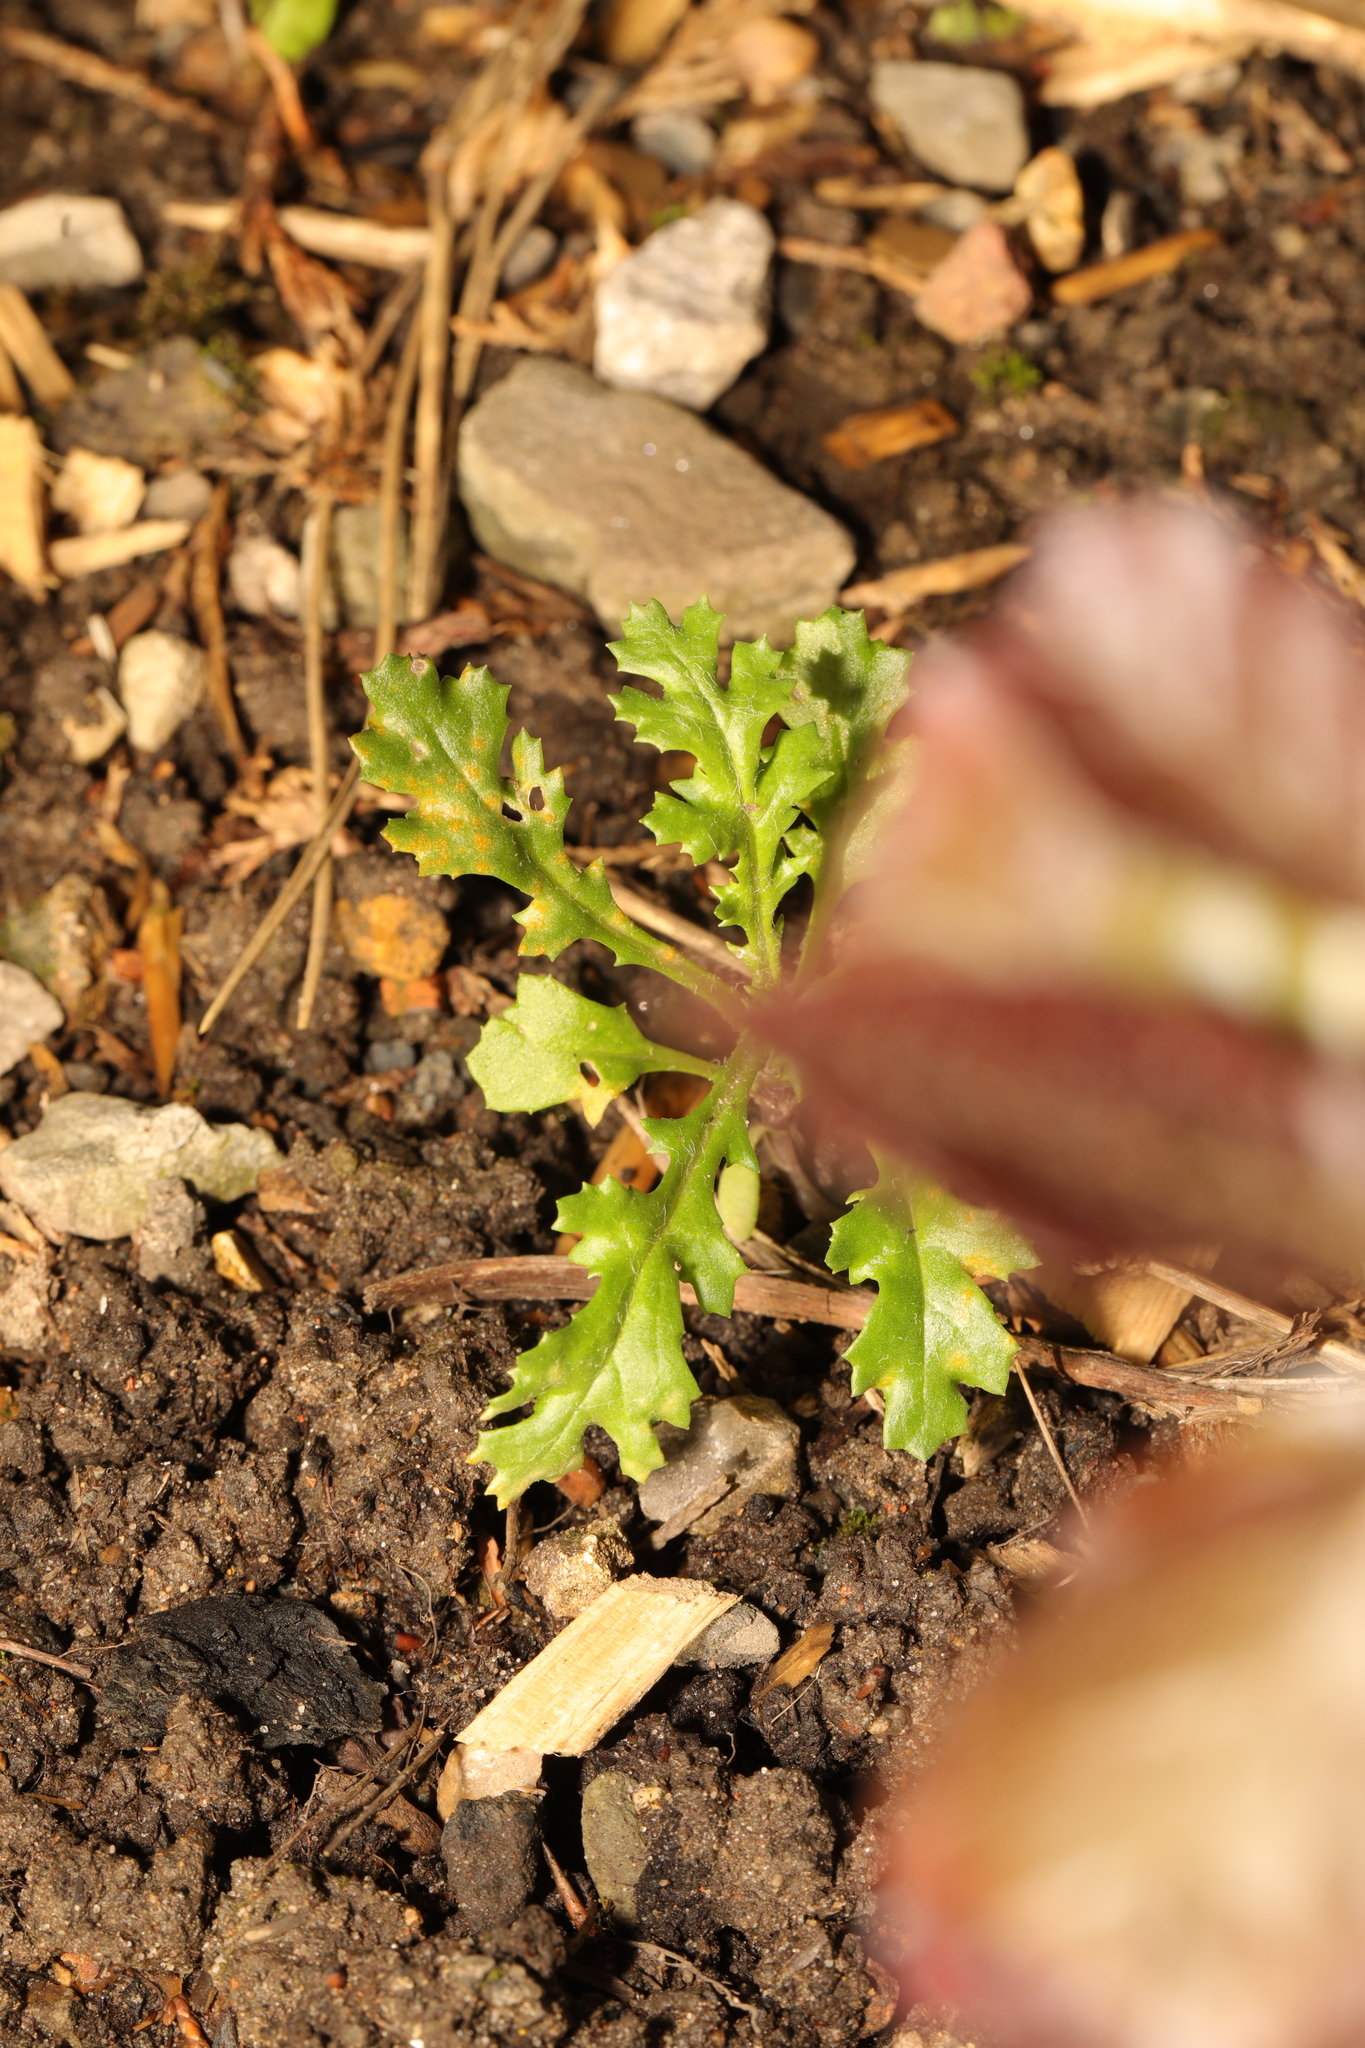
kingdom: Plantae
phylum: Tracheophyta
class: Magnoliopsida
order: Asterales
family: Asteraceae
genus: Senecio
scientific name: Senecio vulgaris
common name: Old-man-in-the-spring
